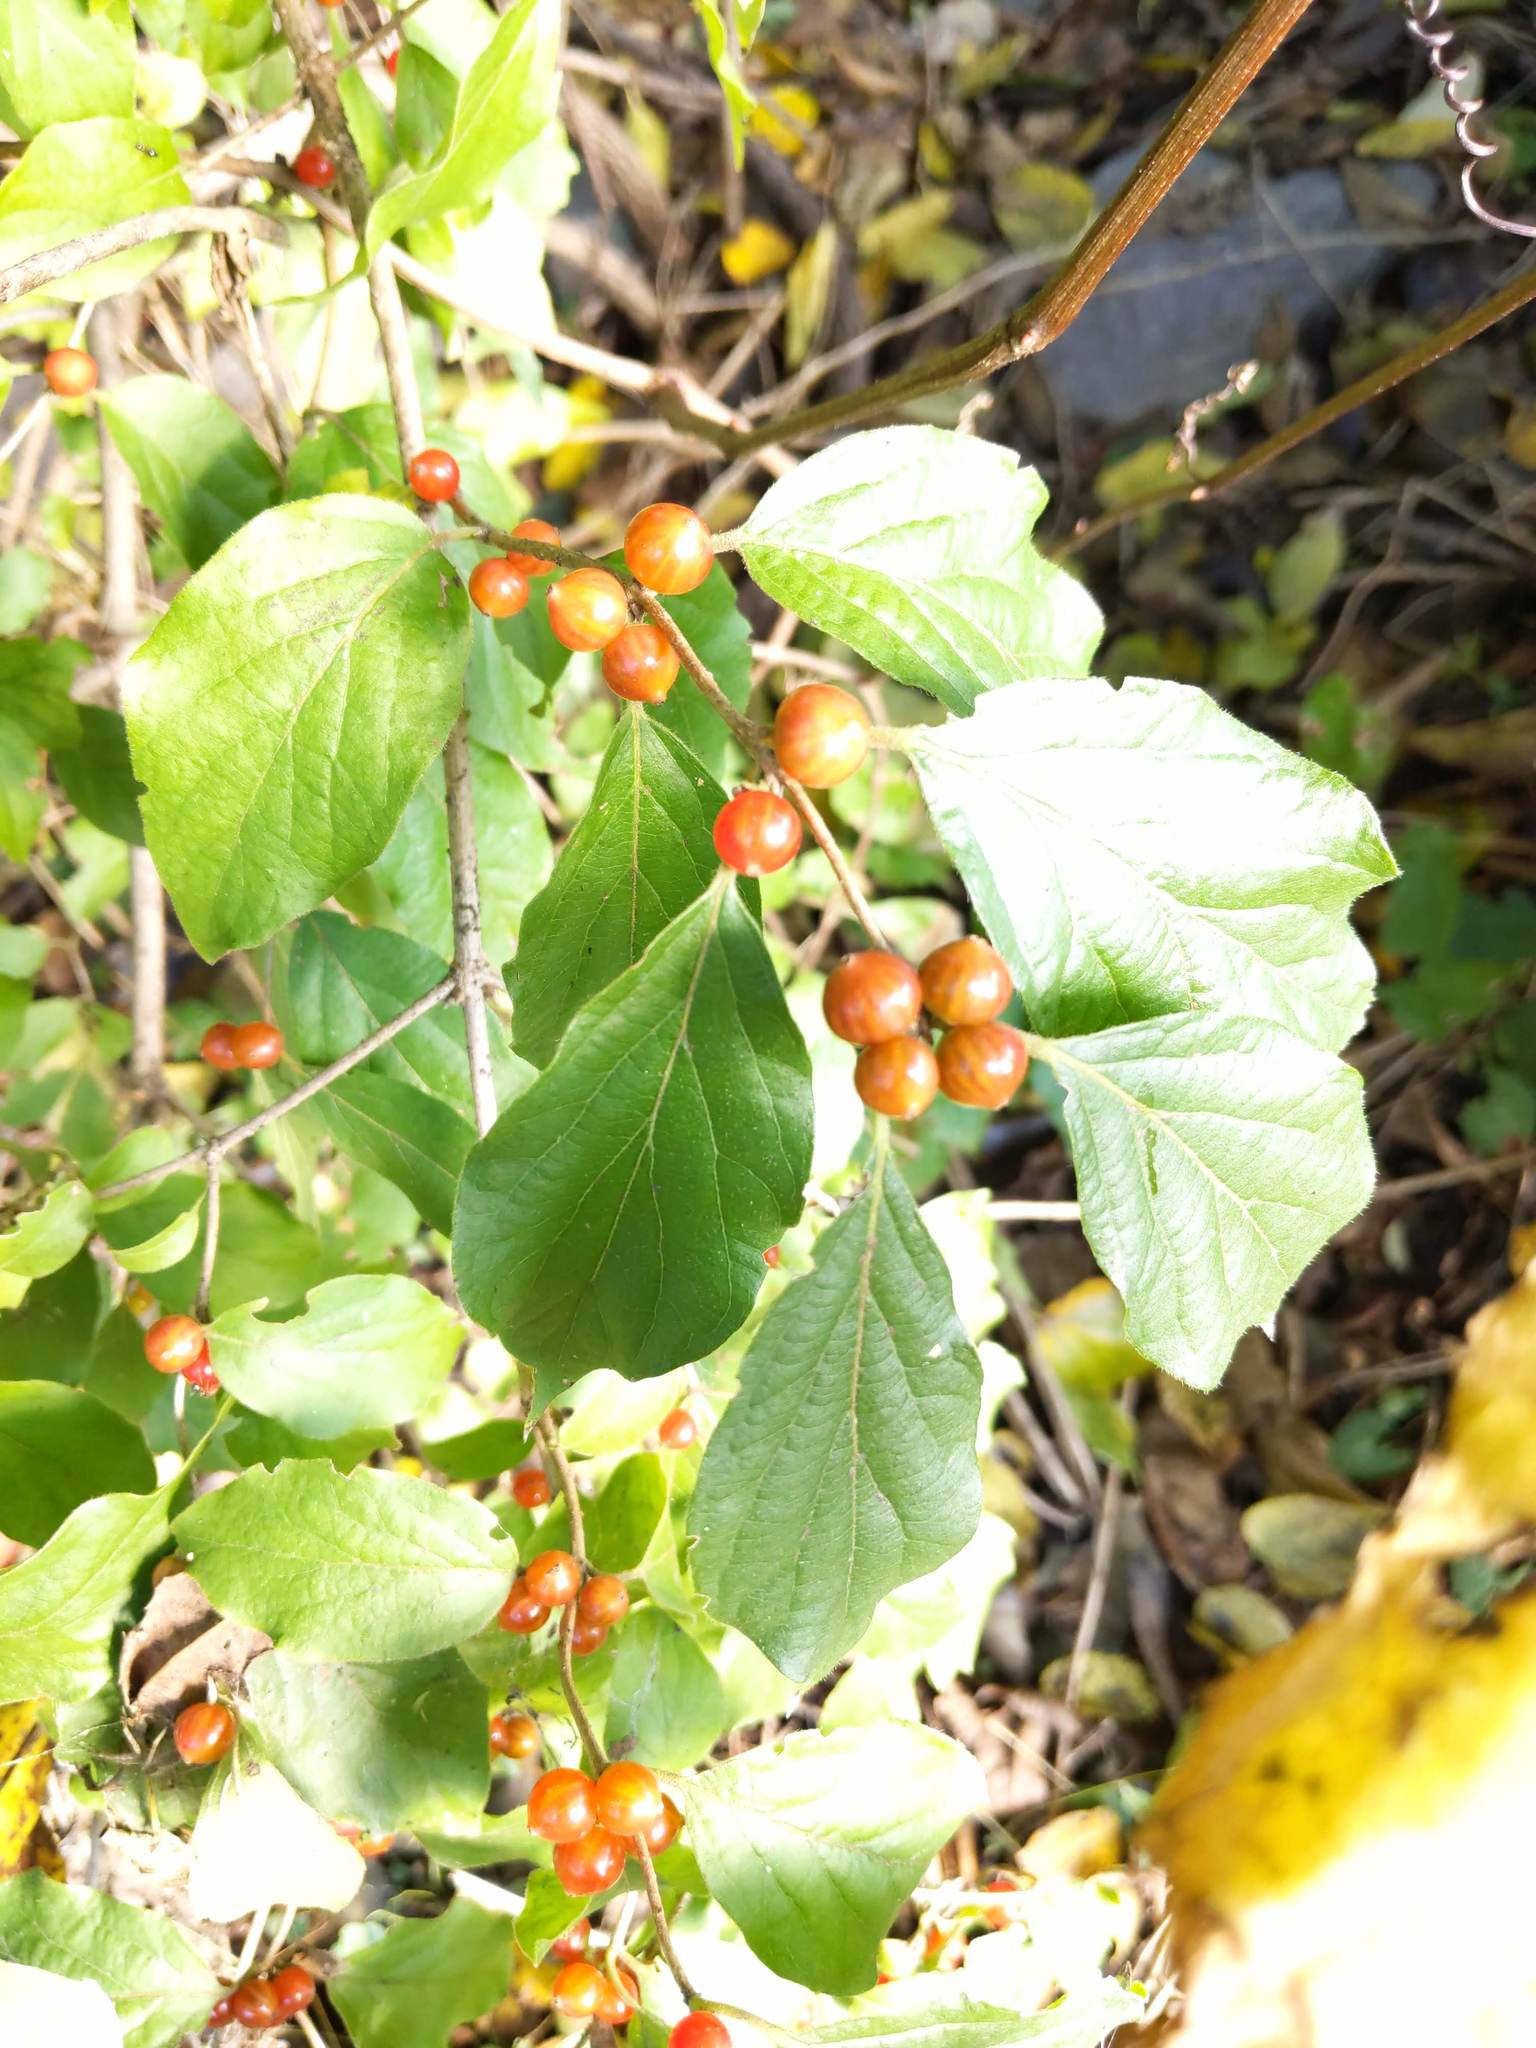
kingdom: Plantae
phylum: Tracheophyta
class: Magnoliopsida
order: Celastrales
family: Celastraceae
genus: Celastrus
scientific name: Celastrus orbiculatus
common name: Oriental bittersweet
